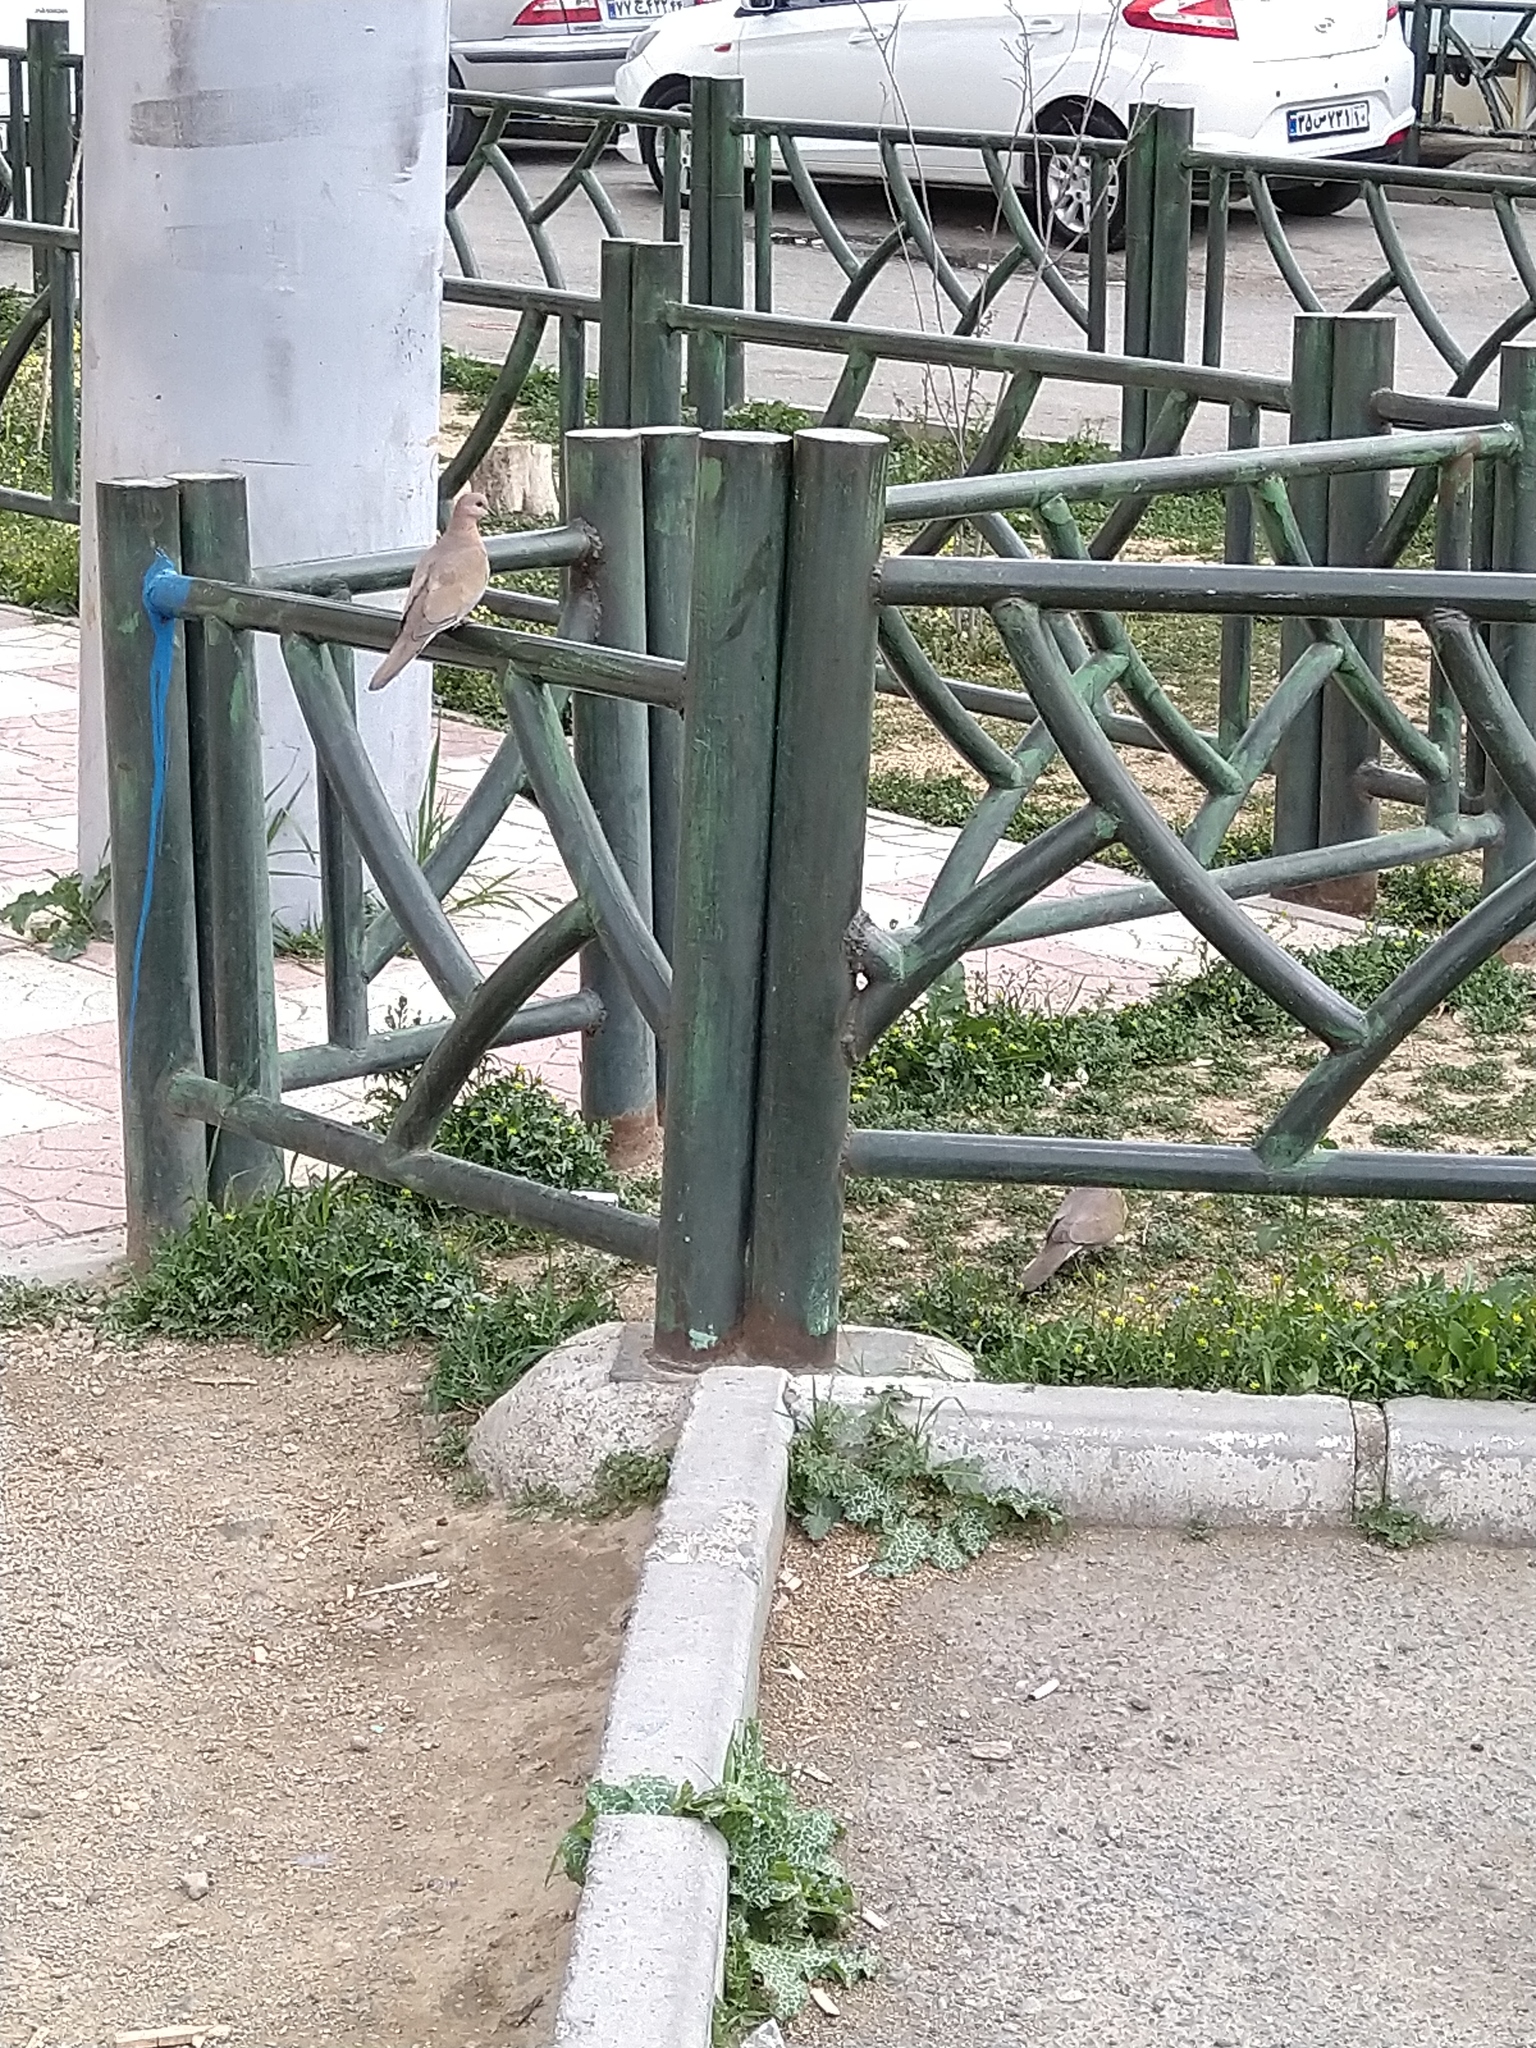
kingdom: Animalia
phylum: Chordata
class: Aves
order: Columbiformes
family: Columbidae
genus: Spilopelia
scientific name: Spilopelia senegalensis
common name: Laughing dove
